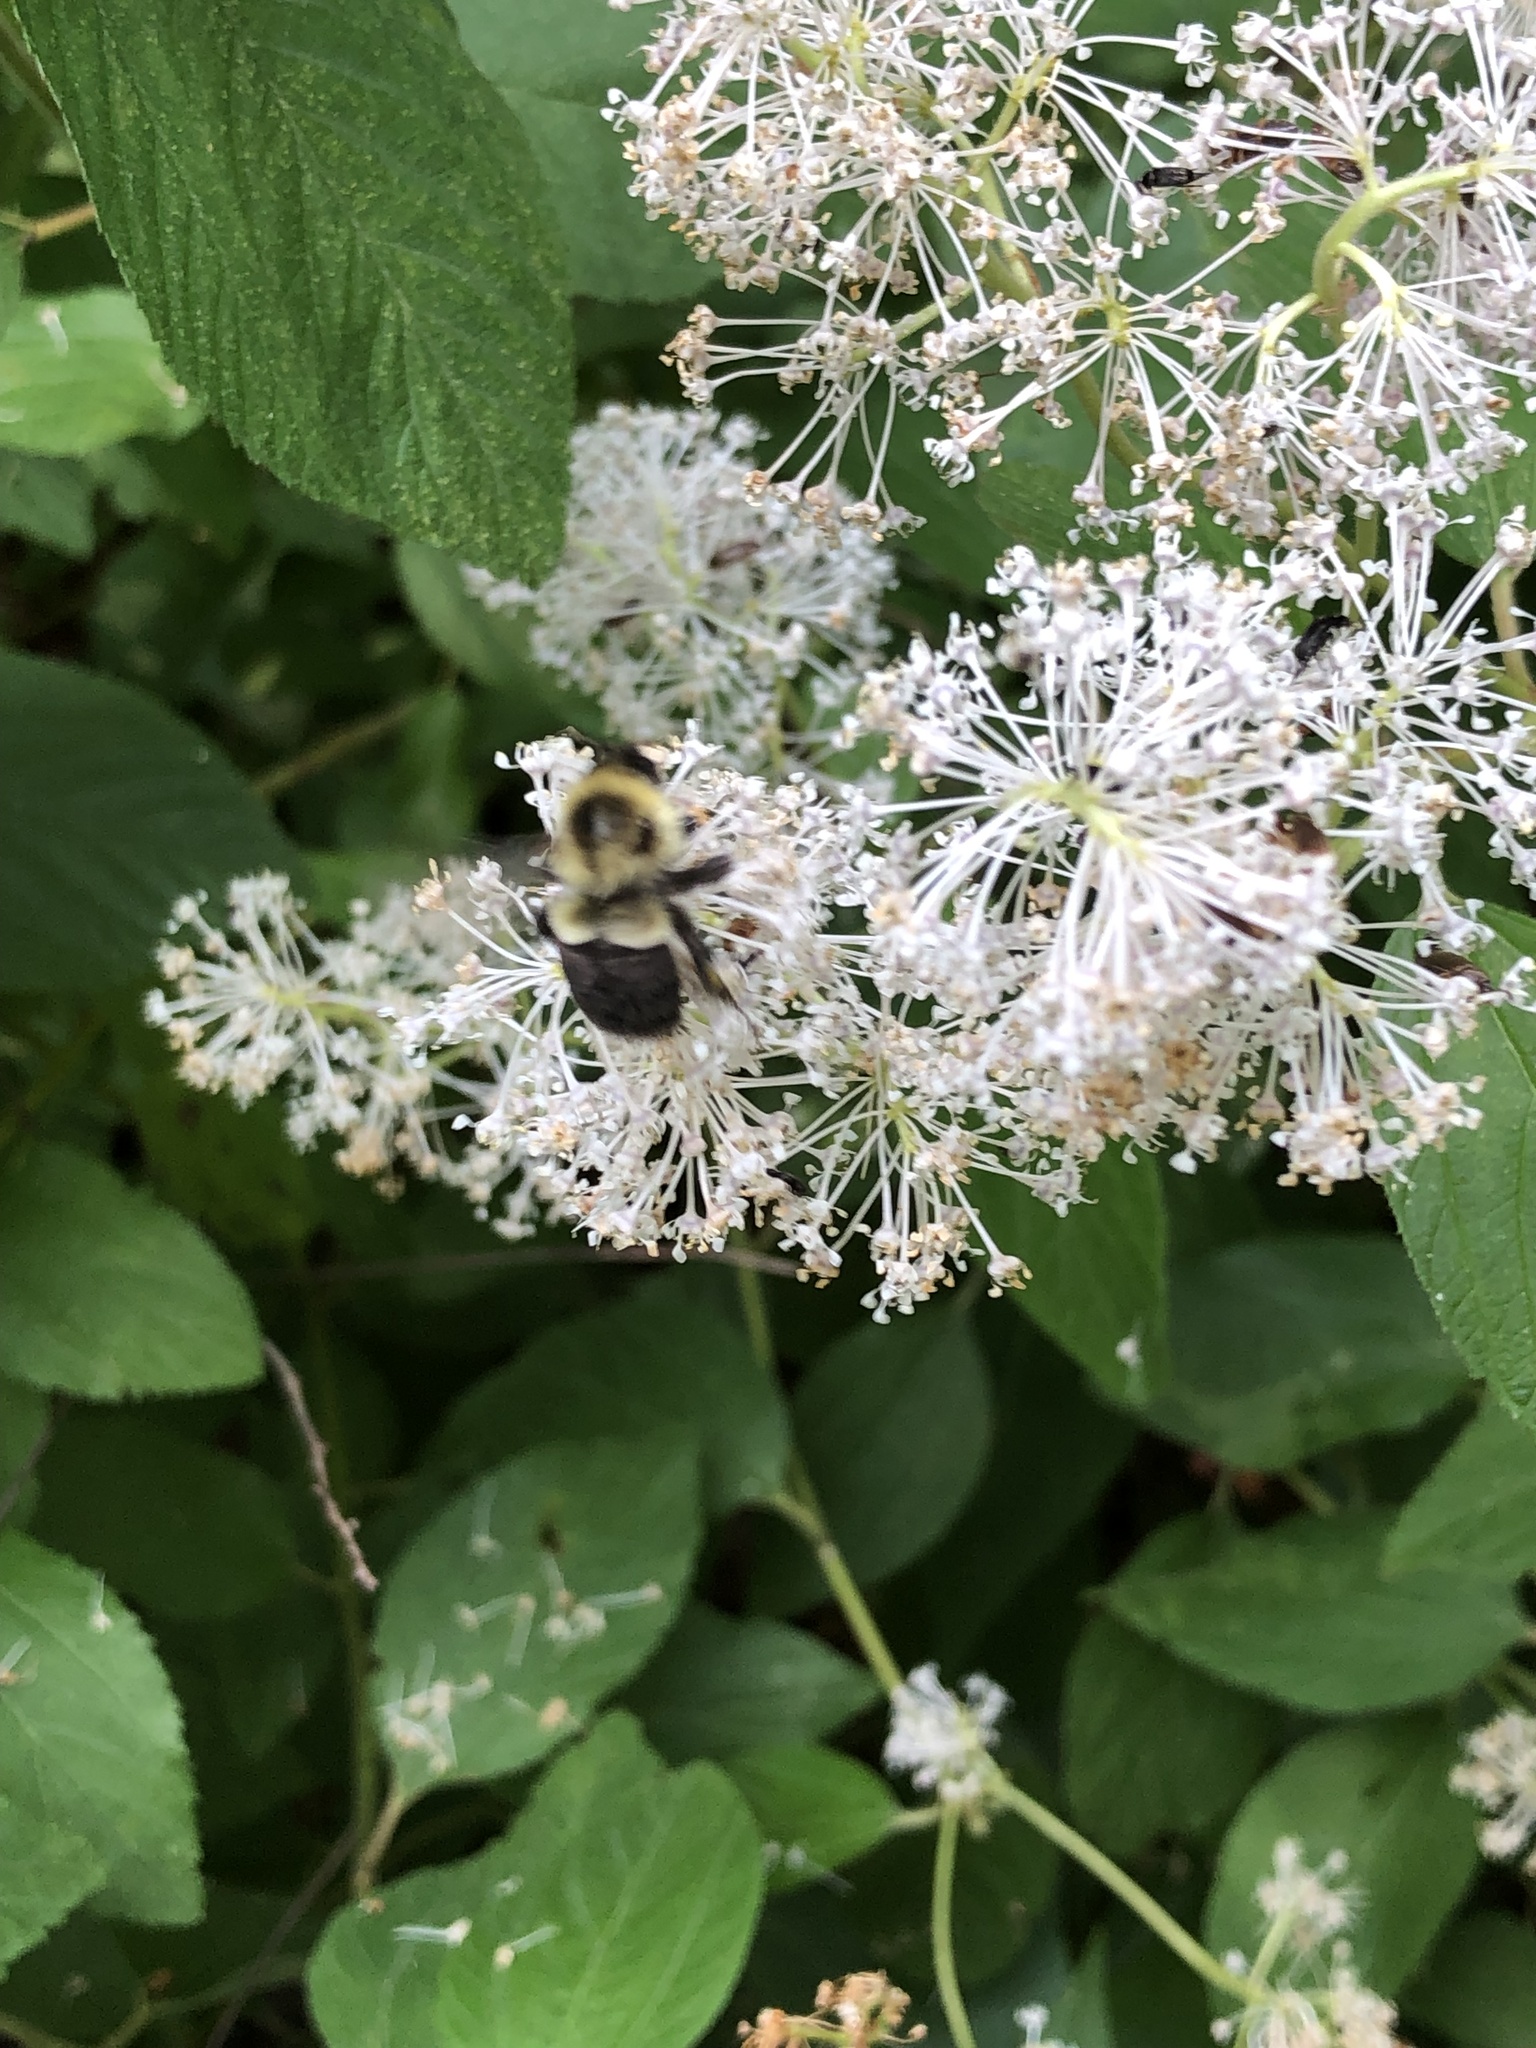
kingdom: Animalia
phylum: Arthropoda
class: Insecta
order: Hymenoptera
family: Apidae
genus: Bombus
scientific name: Bombus impatiens
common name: Common eastern bumble bee
